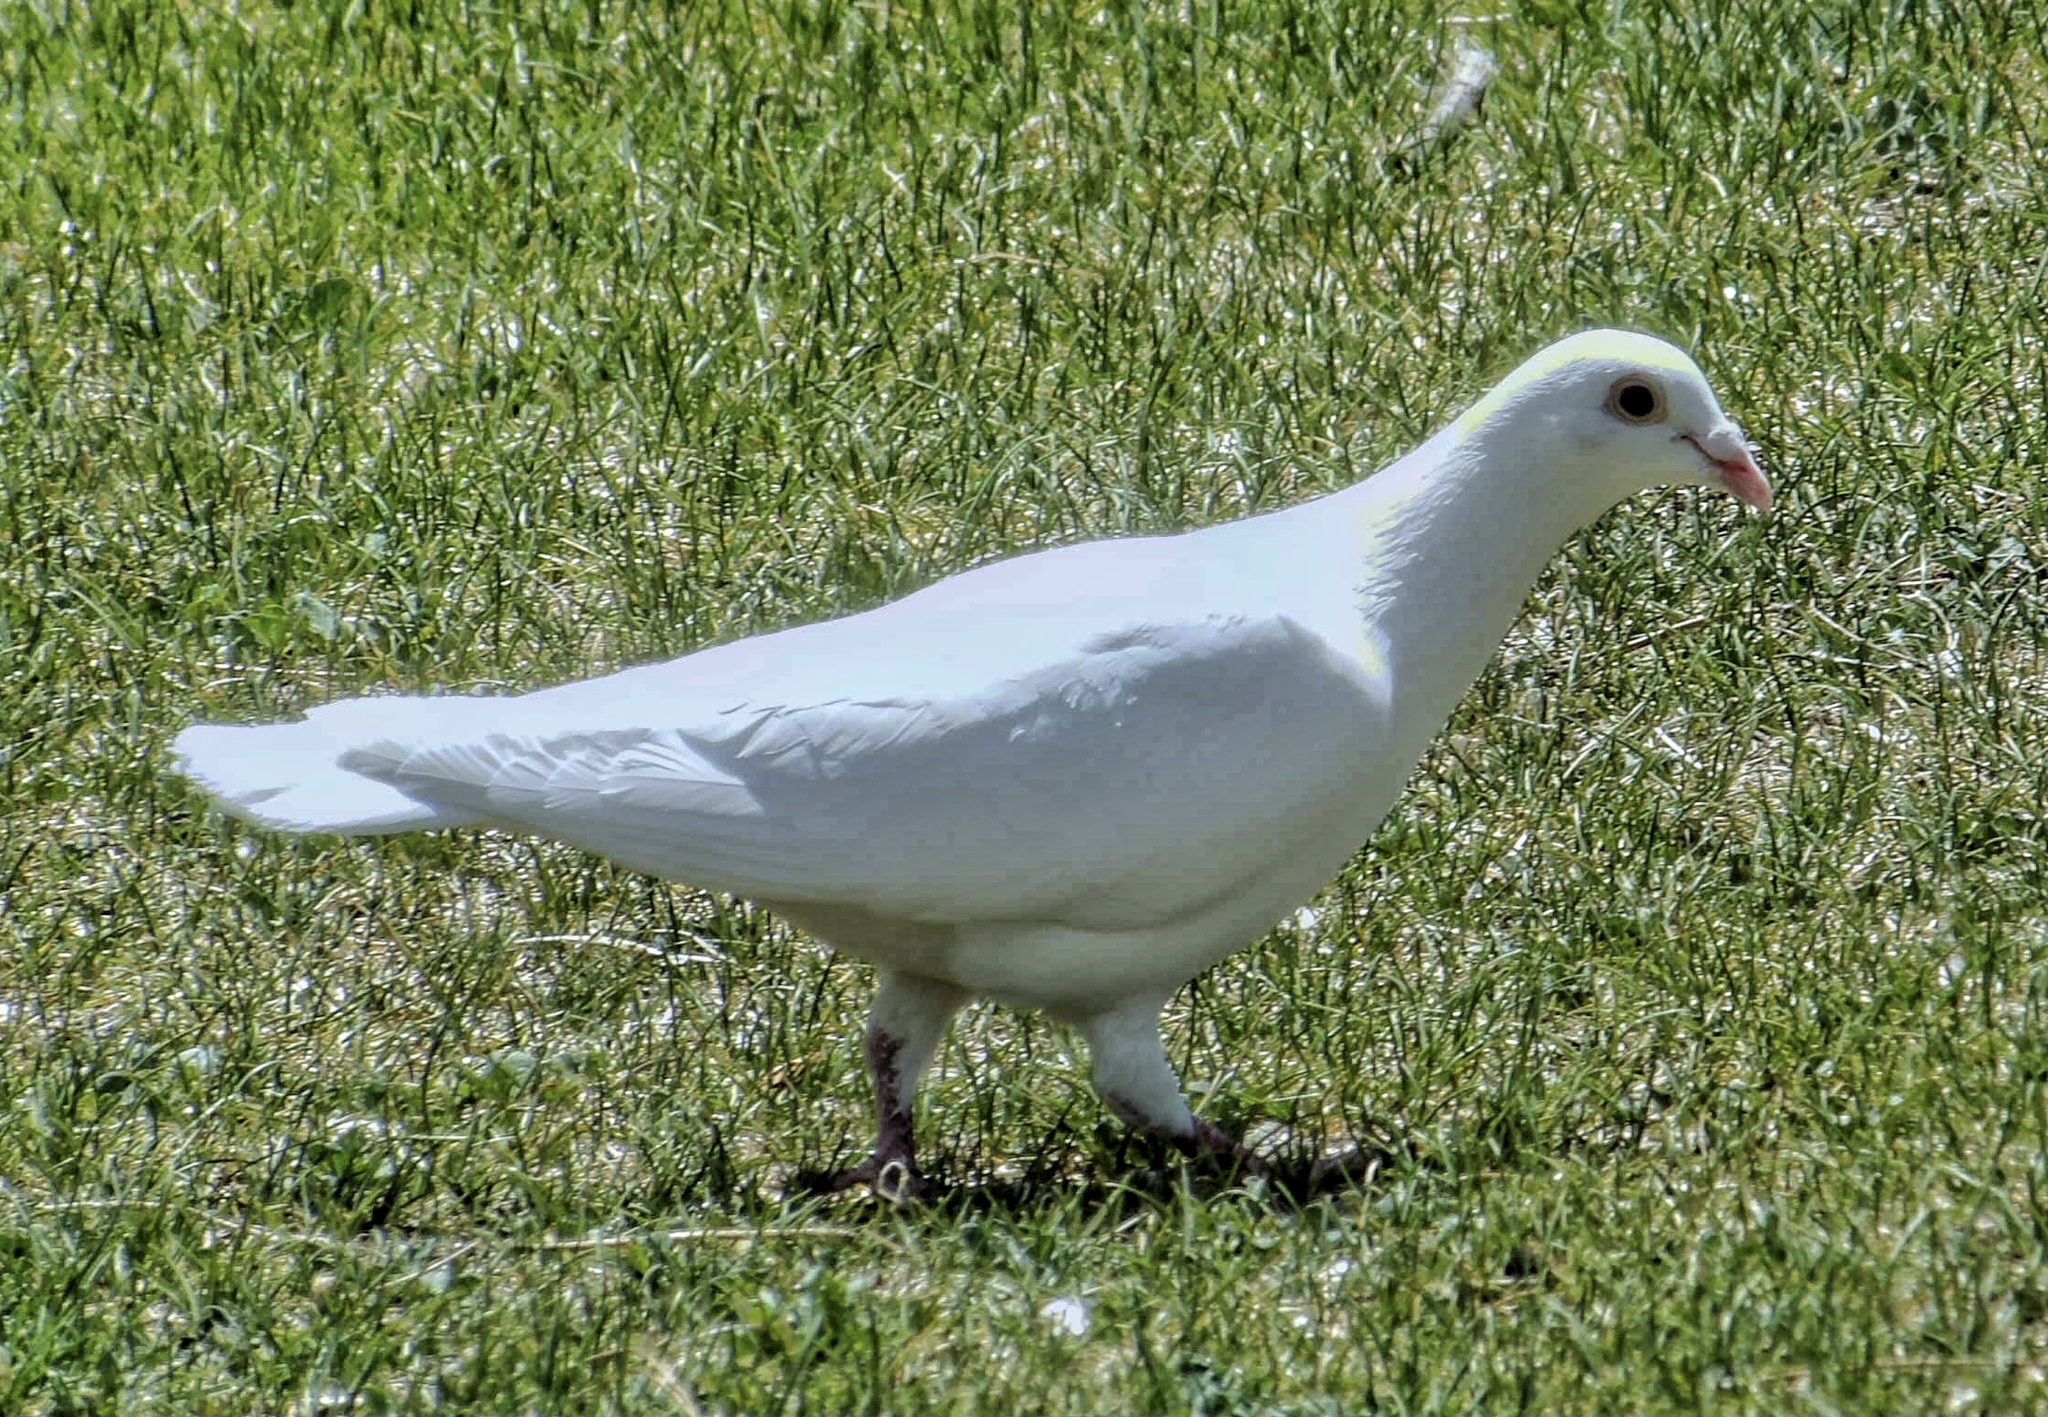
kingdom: Animalia
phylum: Chordata
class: Aves
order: Columbiformes
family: Columbidae
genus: Columba
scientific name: Columba livia
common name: Rock pigeon
